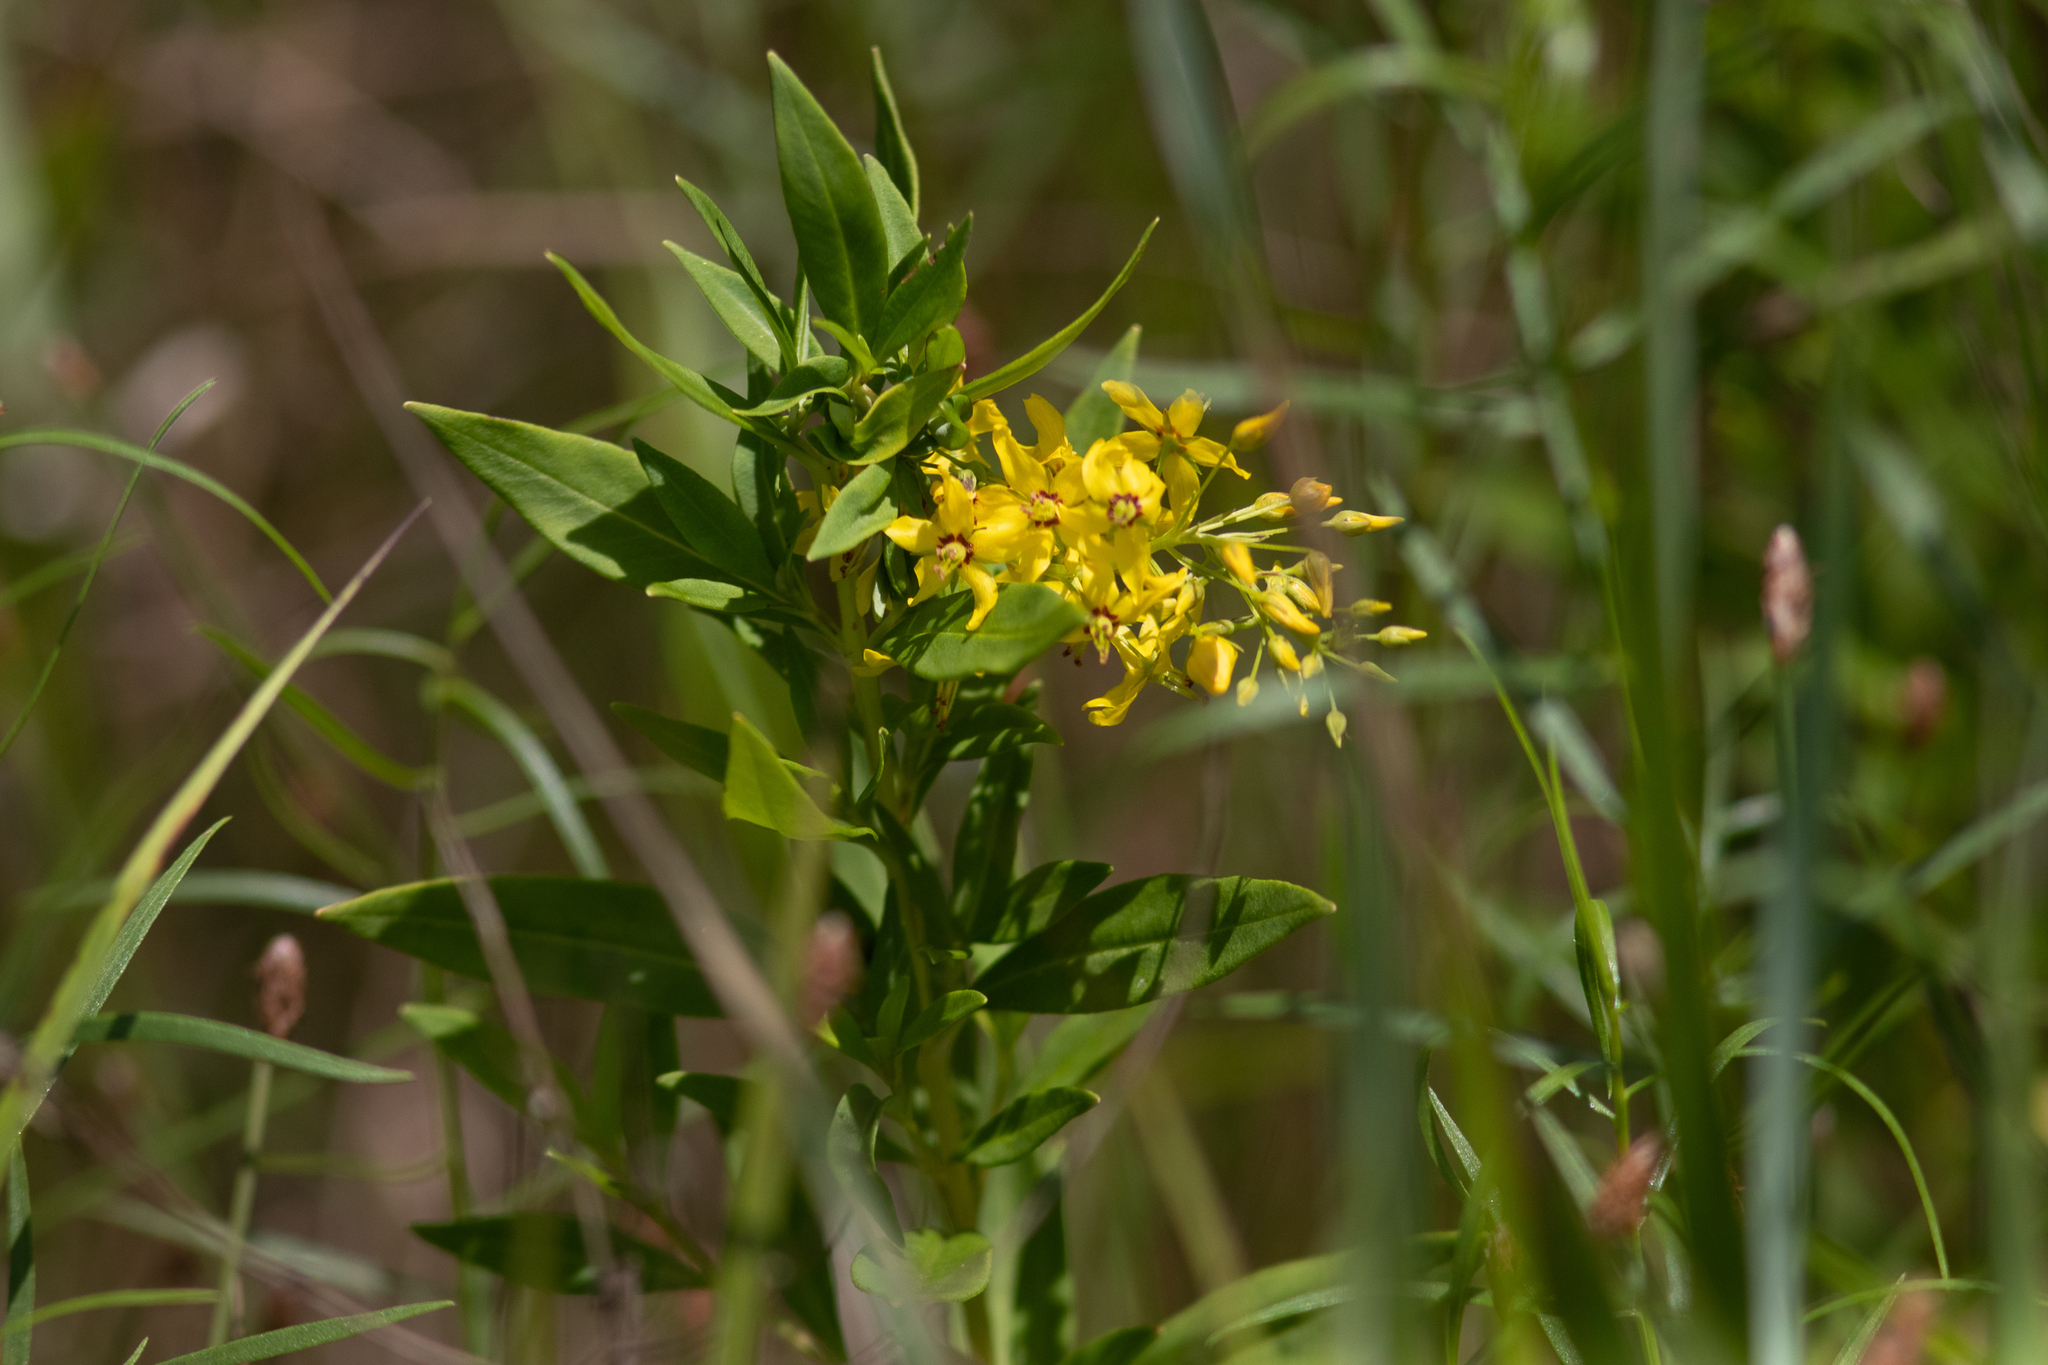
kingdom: Plantae
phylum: Tracheophyta
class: Magnoliopsida
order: Ericales
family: Primulaceae
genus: Lysimachia
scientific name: Lysimachia terrestris
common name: Lake loosestrife
